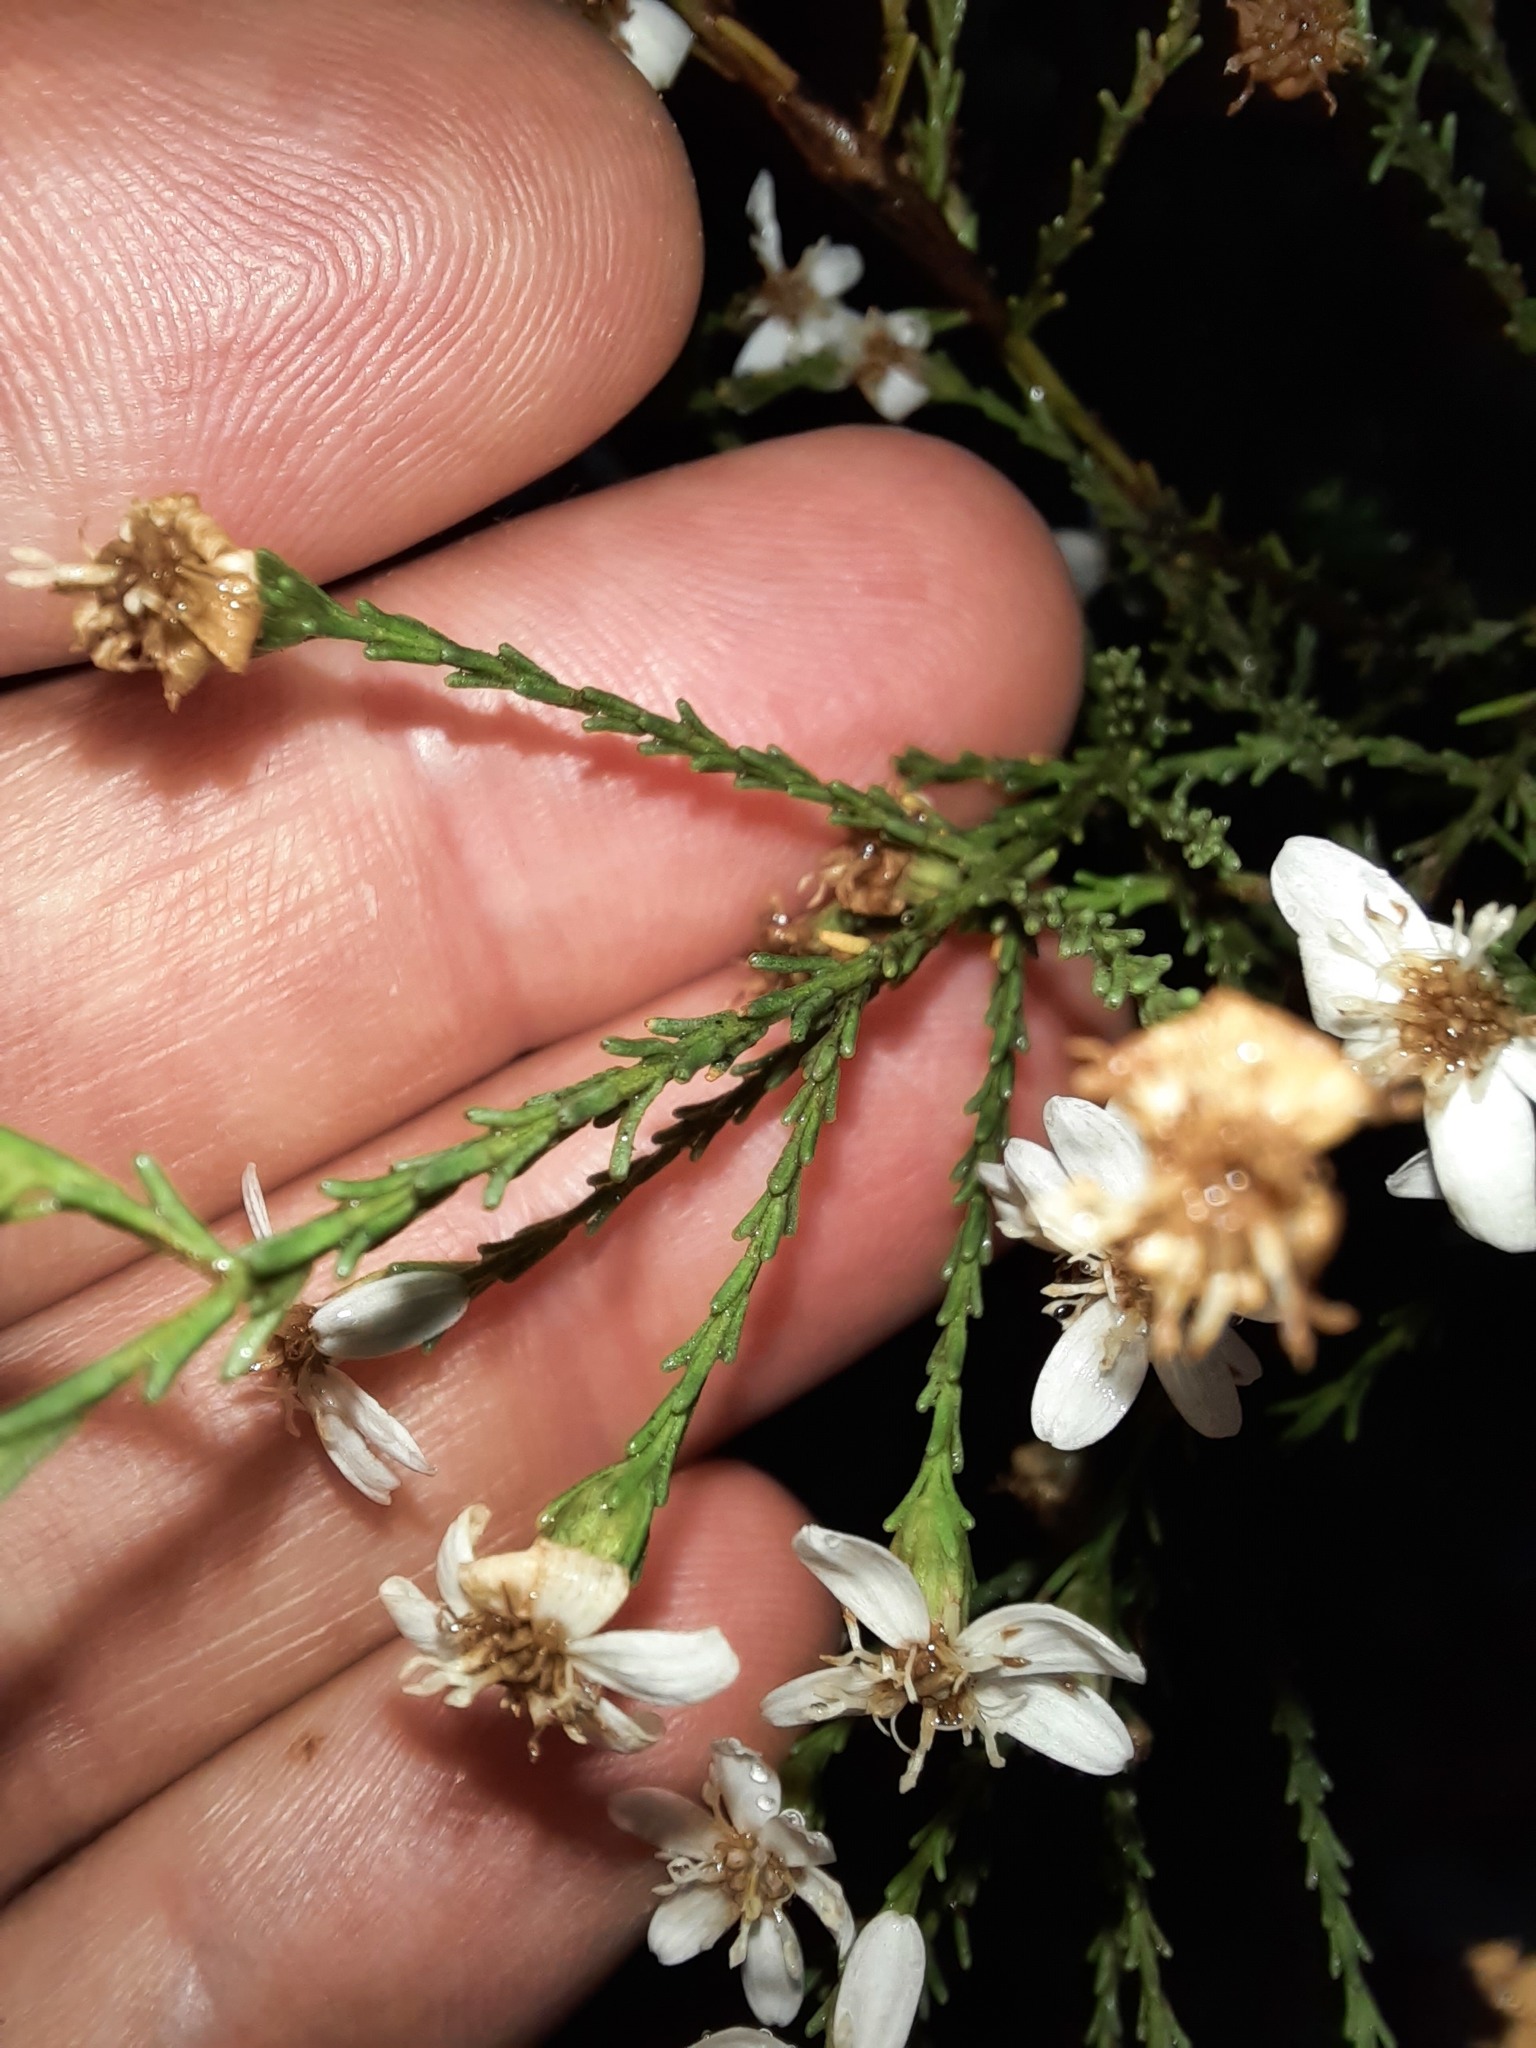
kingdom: Plantae
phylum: Tracheophyta
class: Magnoliopsida
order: Asterales
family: Asteraceae
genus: Olearia
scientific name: Olearia teretifolia
